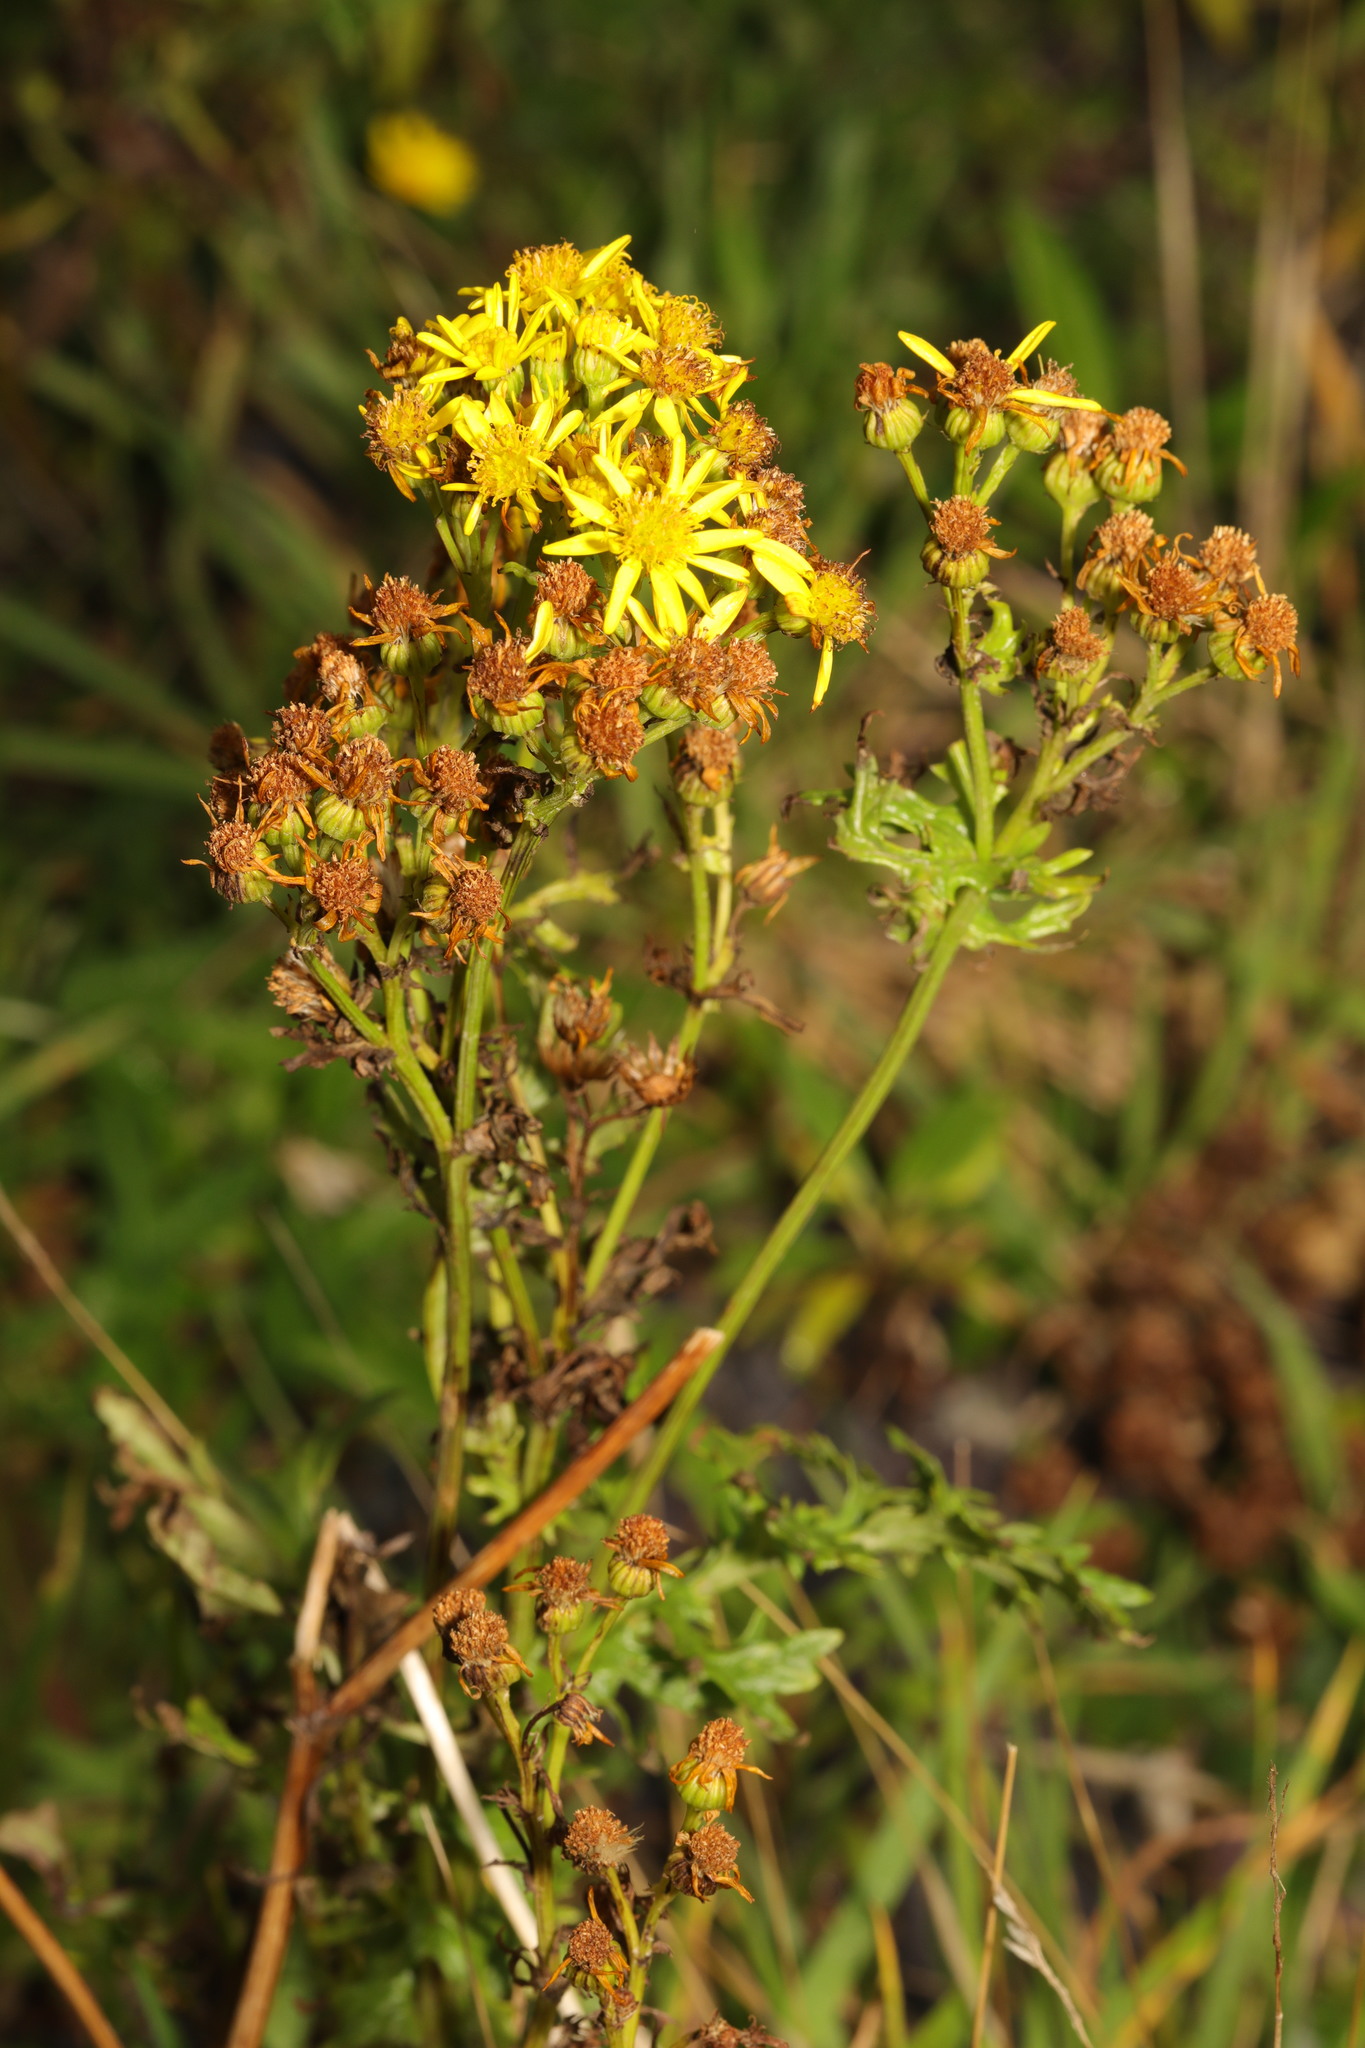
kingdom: Plantae
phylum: Tracheophyta
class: Magnoliopsida
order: Asterales
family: Asteraceae
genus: Jacobaea
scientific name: Jacobaea vulgaris
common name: Stinking willie
